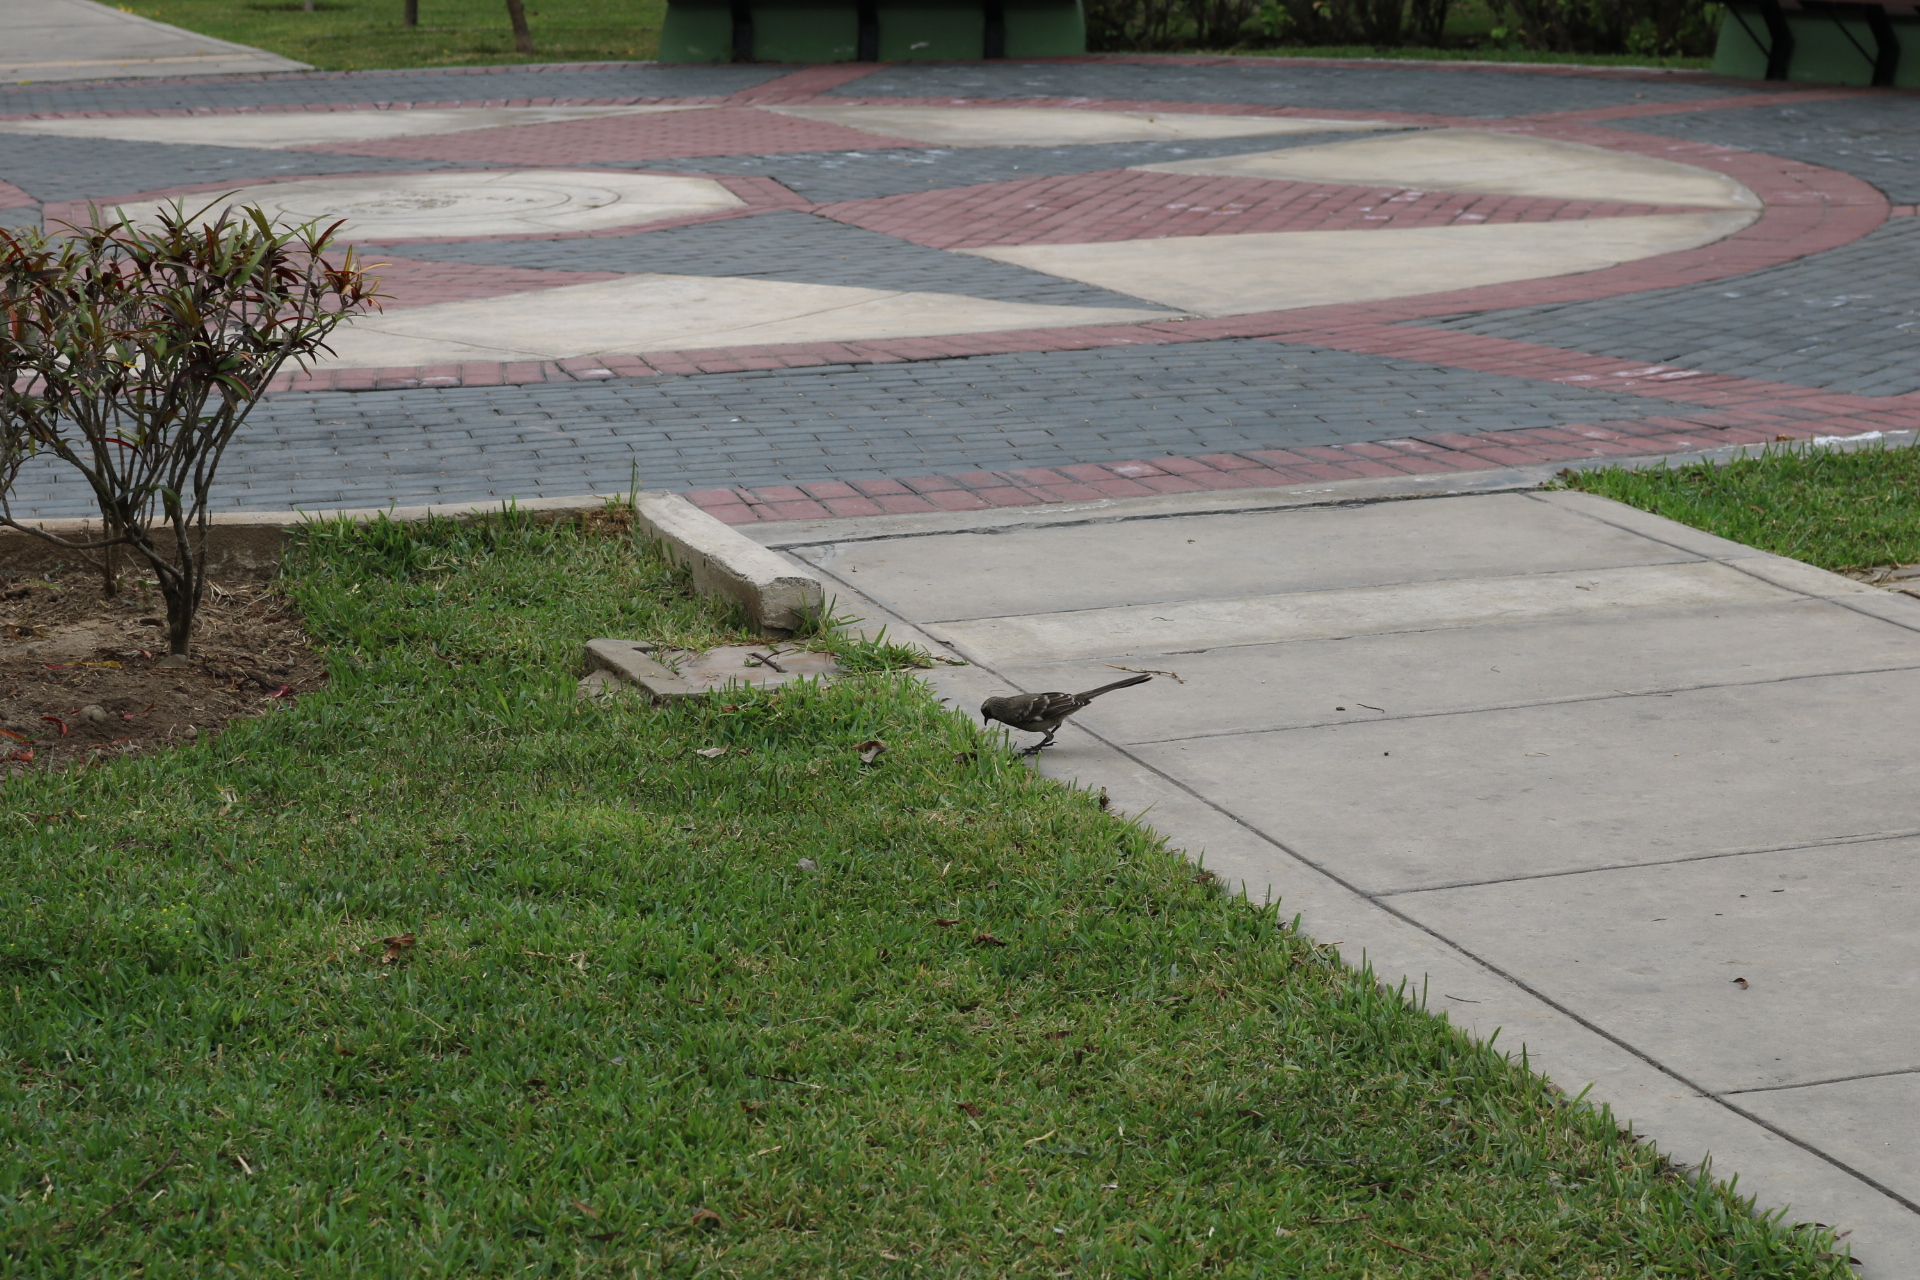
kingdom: Animalia
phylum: Chordata
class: Aves
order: Passeriformes
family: Mimidae
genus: Mimus
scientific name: Mimus longicaudatus
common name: Long-tailed mockingbird
